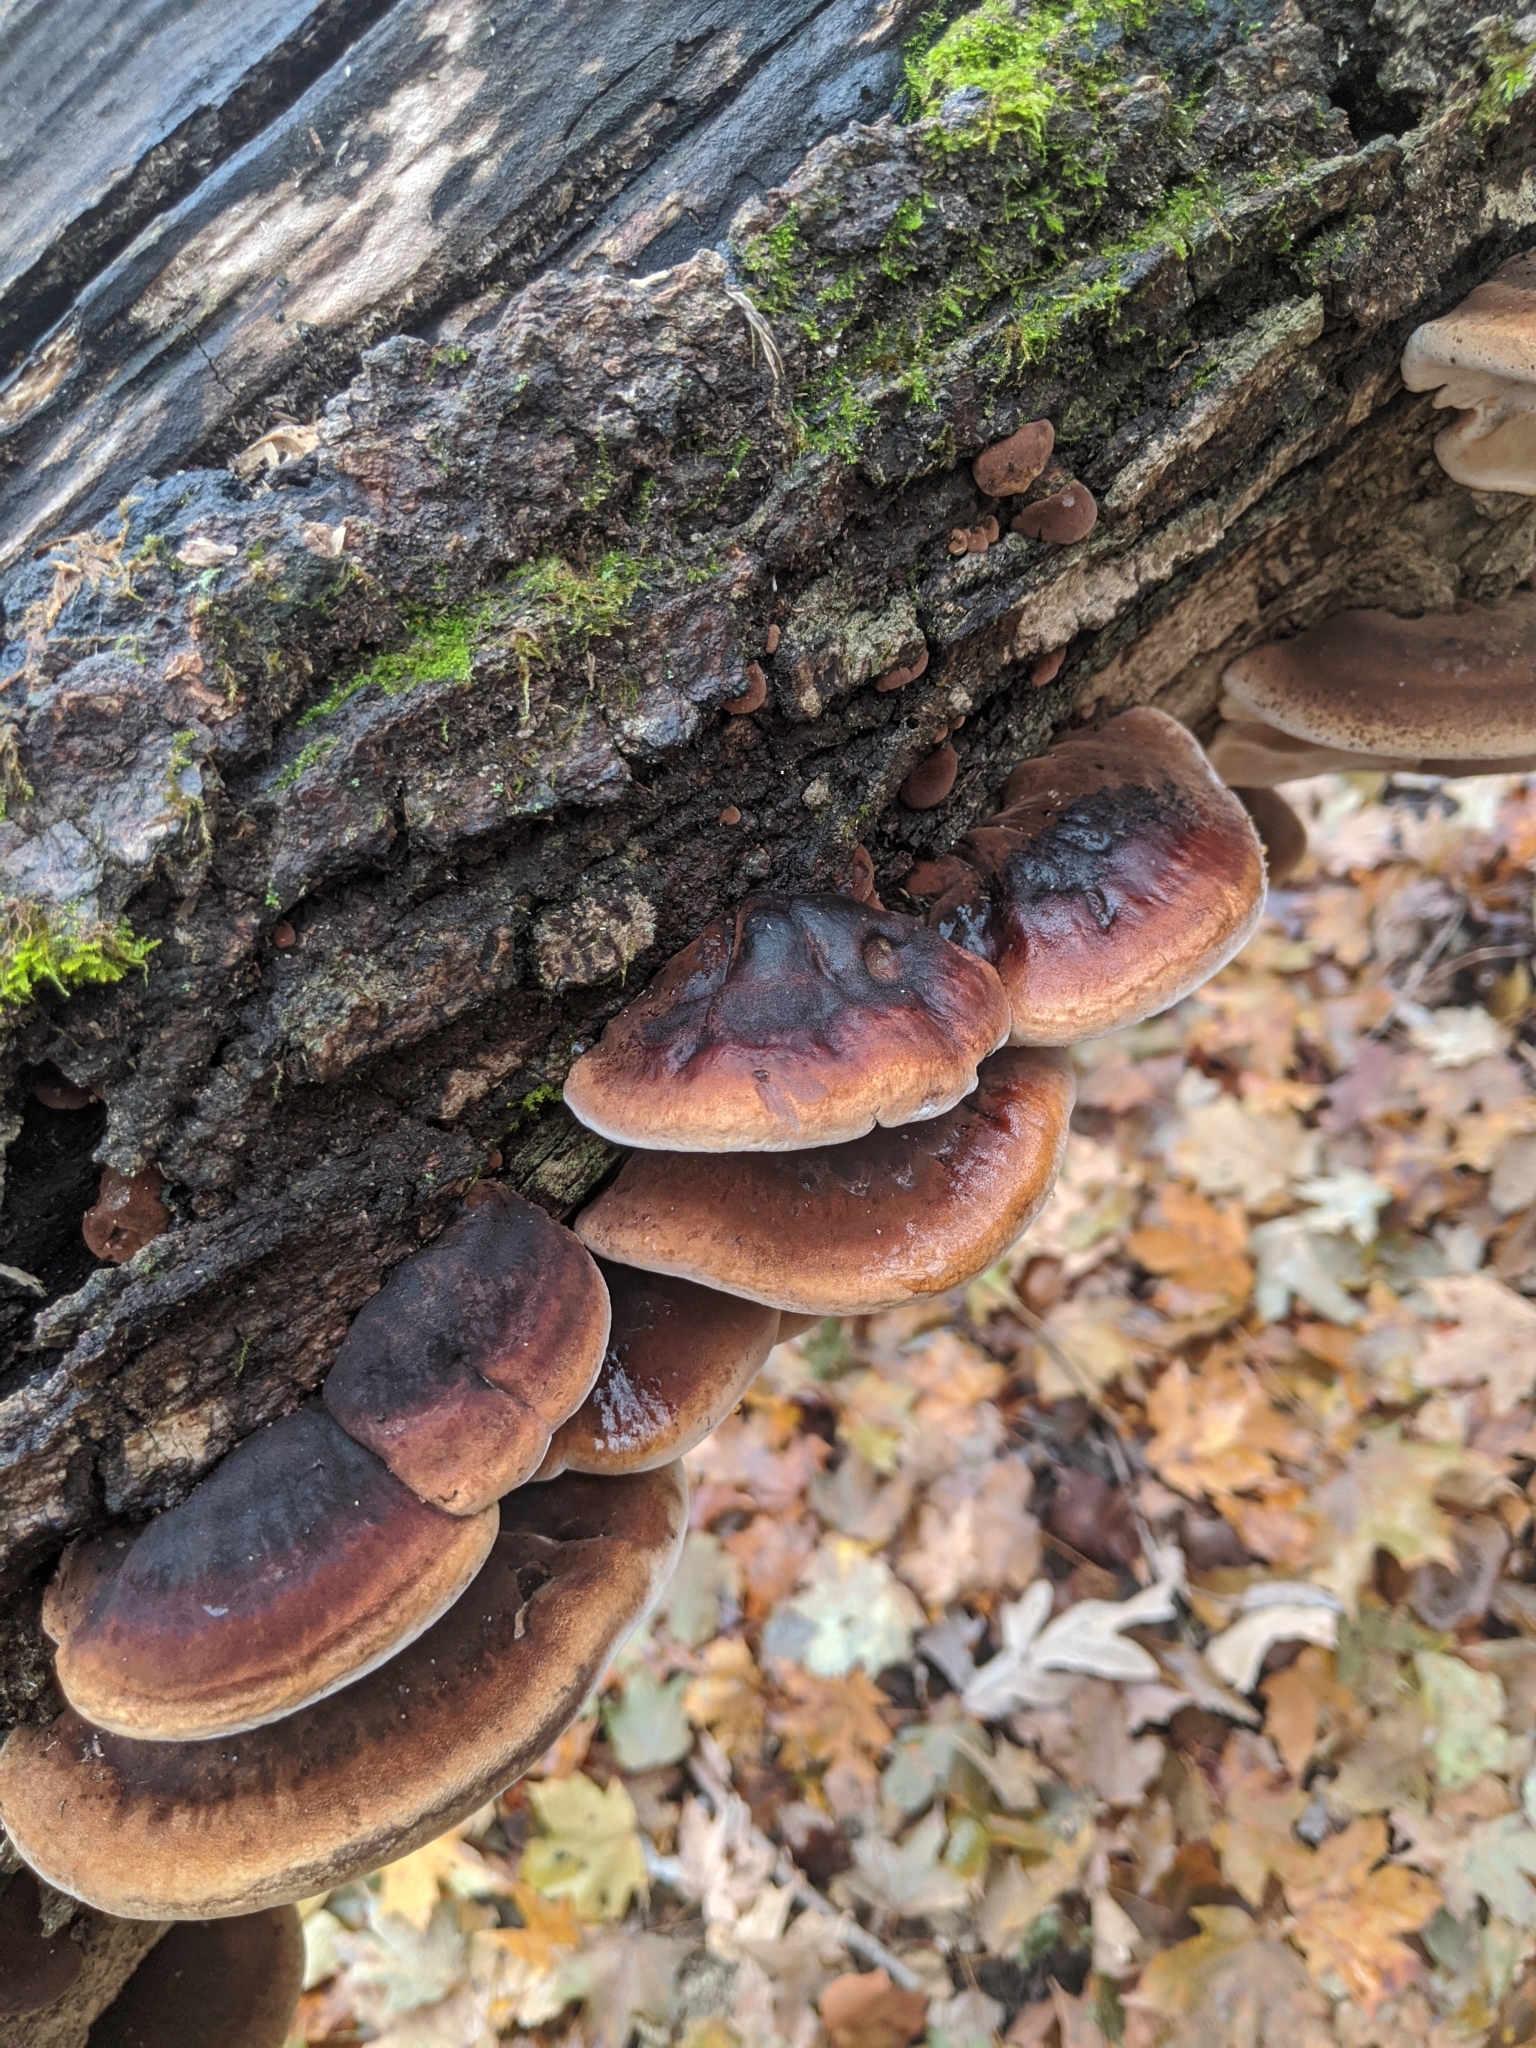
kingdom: Fungi
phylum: Basidiomycota
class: Agaricomycetes
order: Polyporales
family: Ischnodermataceae
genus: Ischnoderma
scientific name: Ischnoderma resinosum
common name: Resinous polypore
